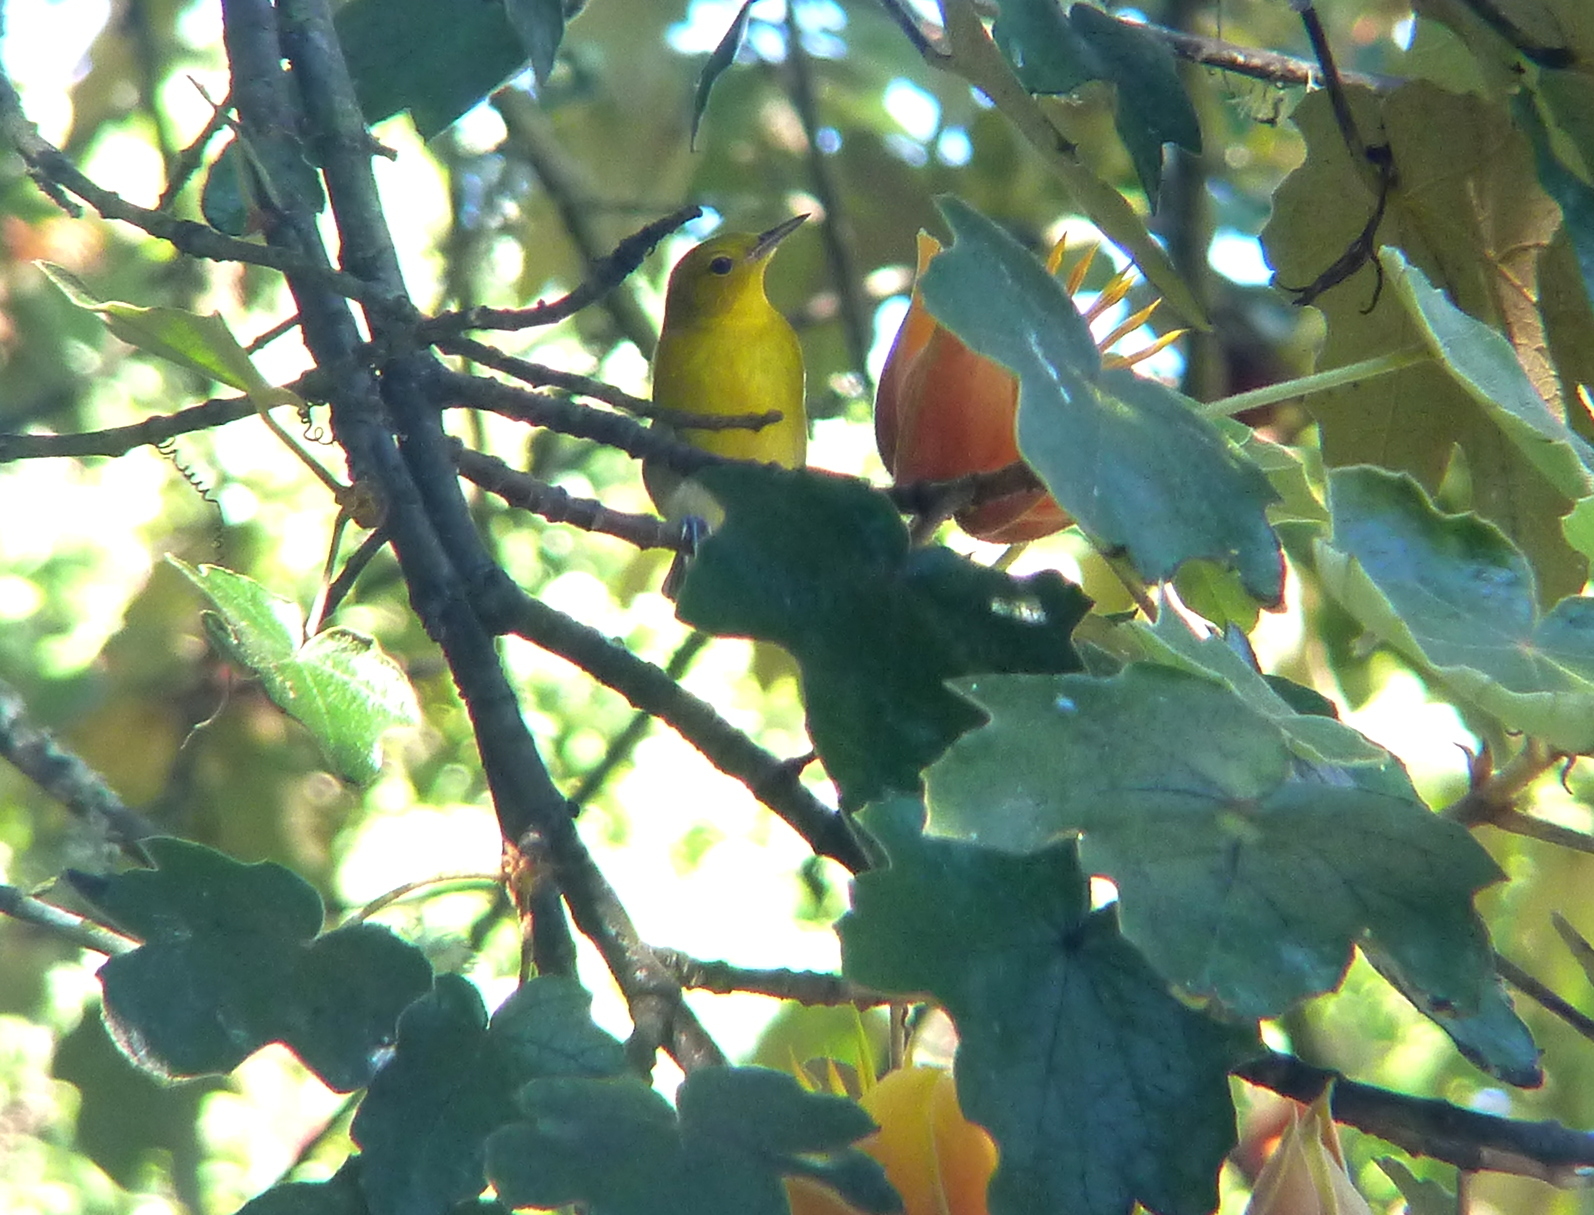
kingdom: Animalia
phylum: Chordata
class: Aves
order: Passeriformes
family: Parulidae
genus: Protonotaria
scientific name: Protonotaria citrea
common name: Prothonotary warbler
